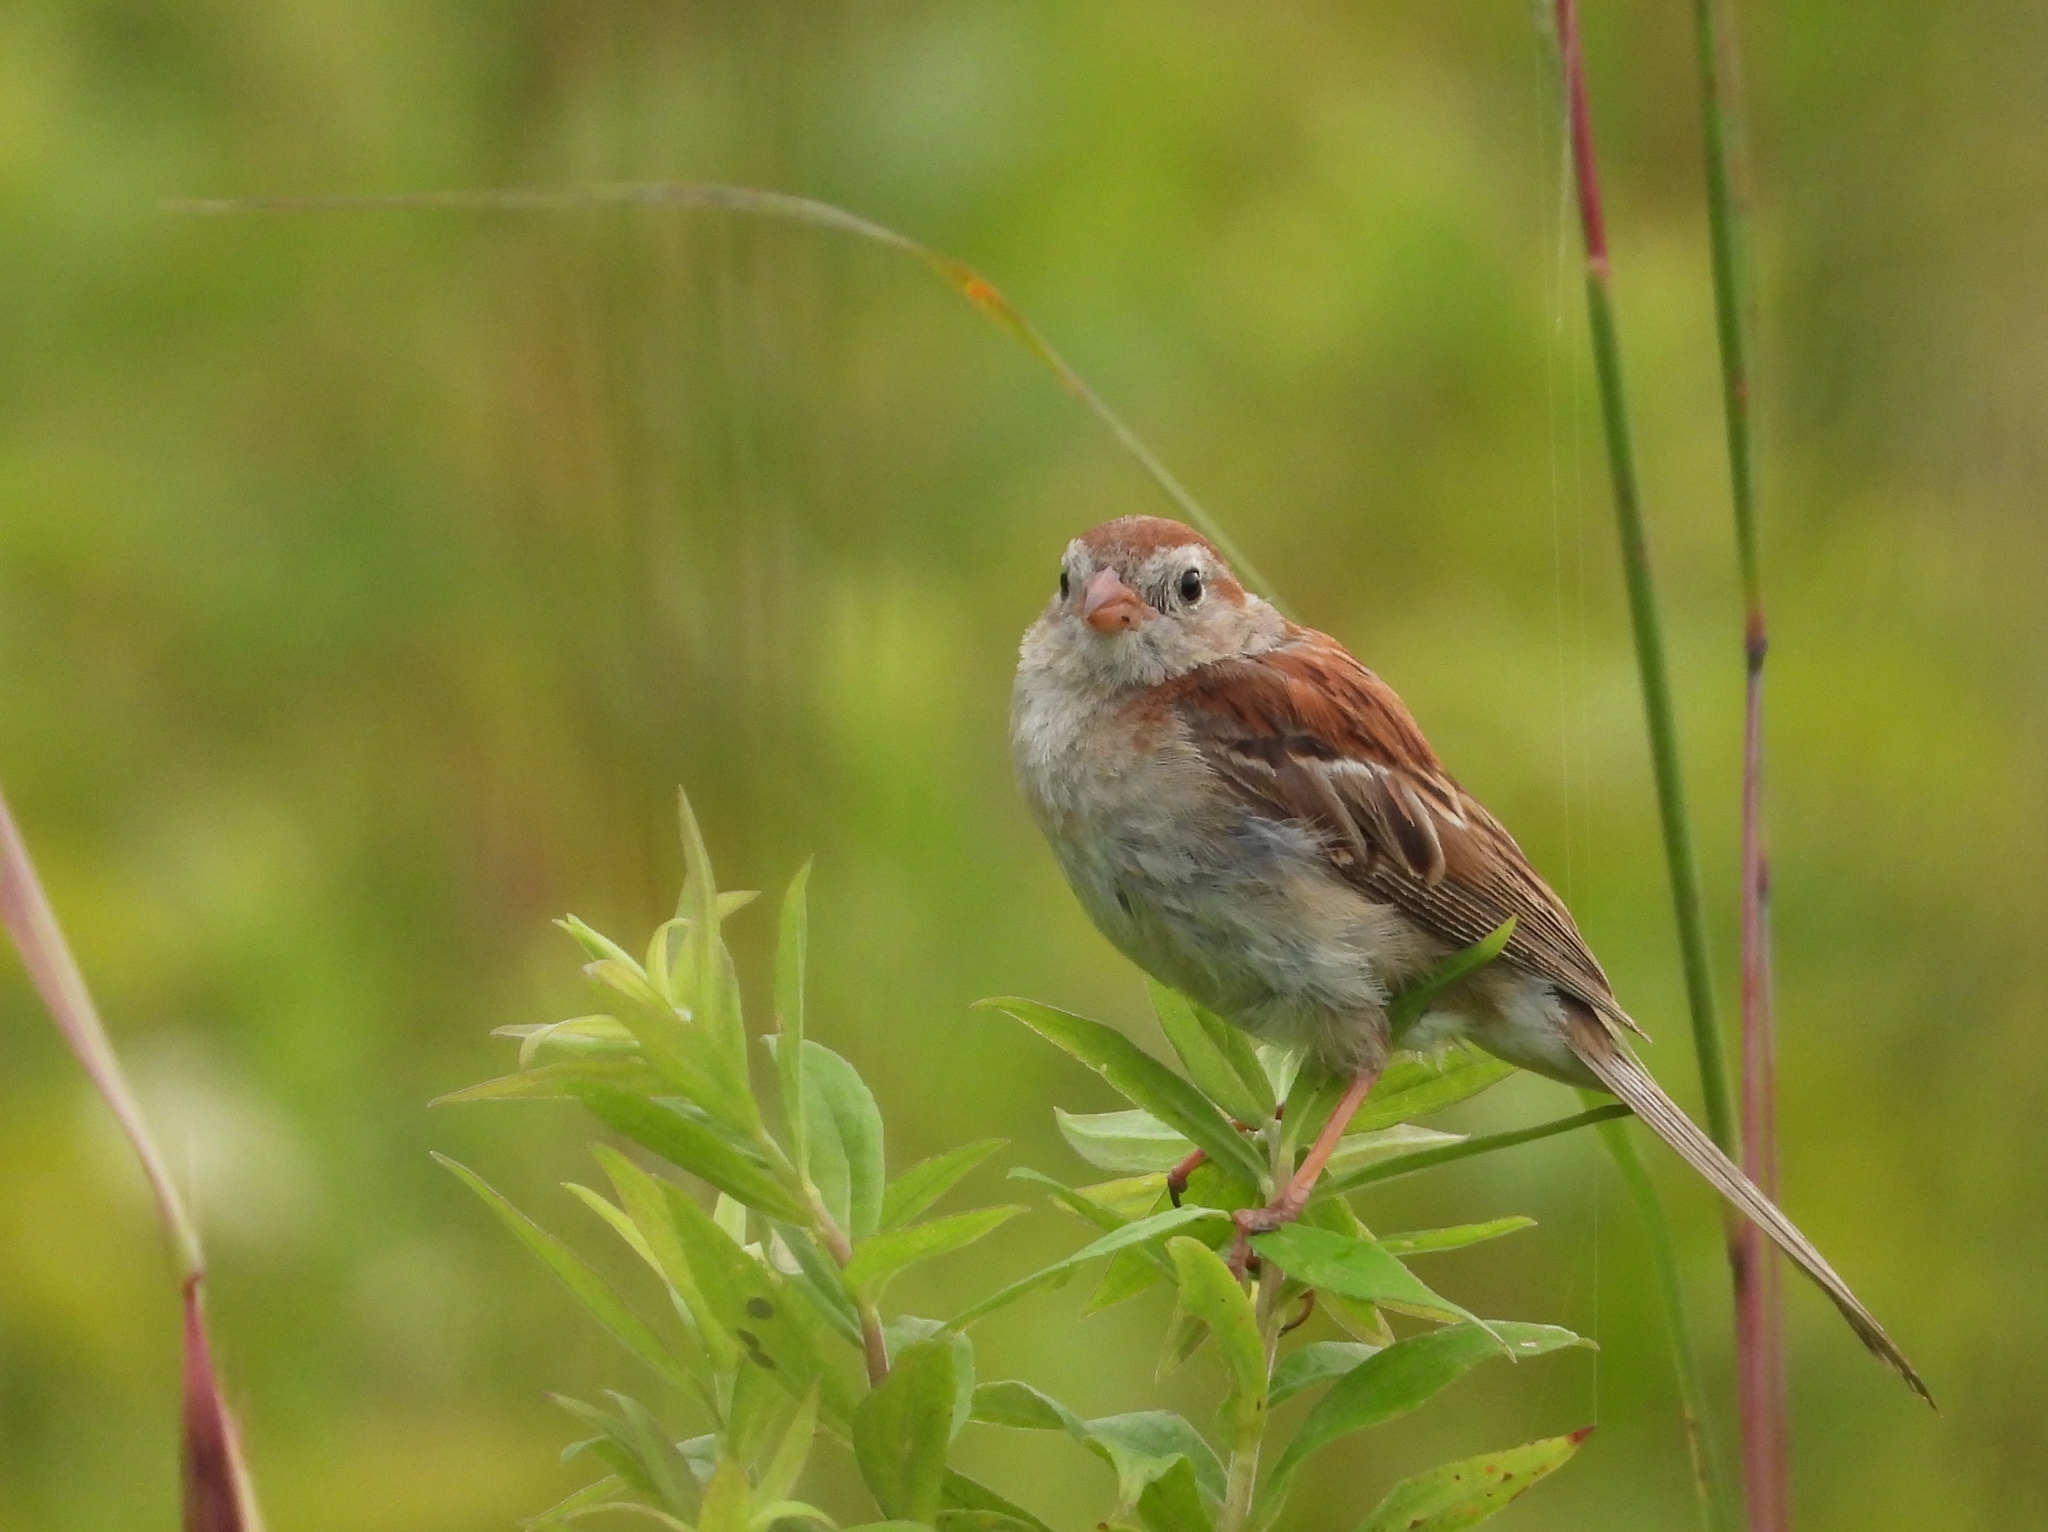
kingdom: Animalia
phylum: Chordata
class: Aves
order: Passeriformes
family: Passerellidae
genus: Spizella
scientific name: Spizella pusilla
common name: Field sparrow
